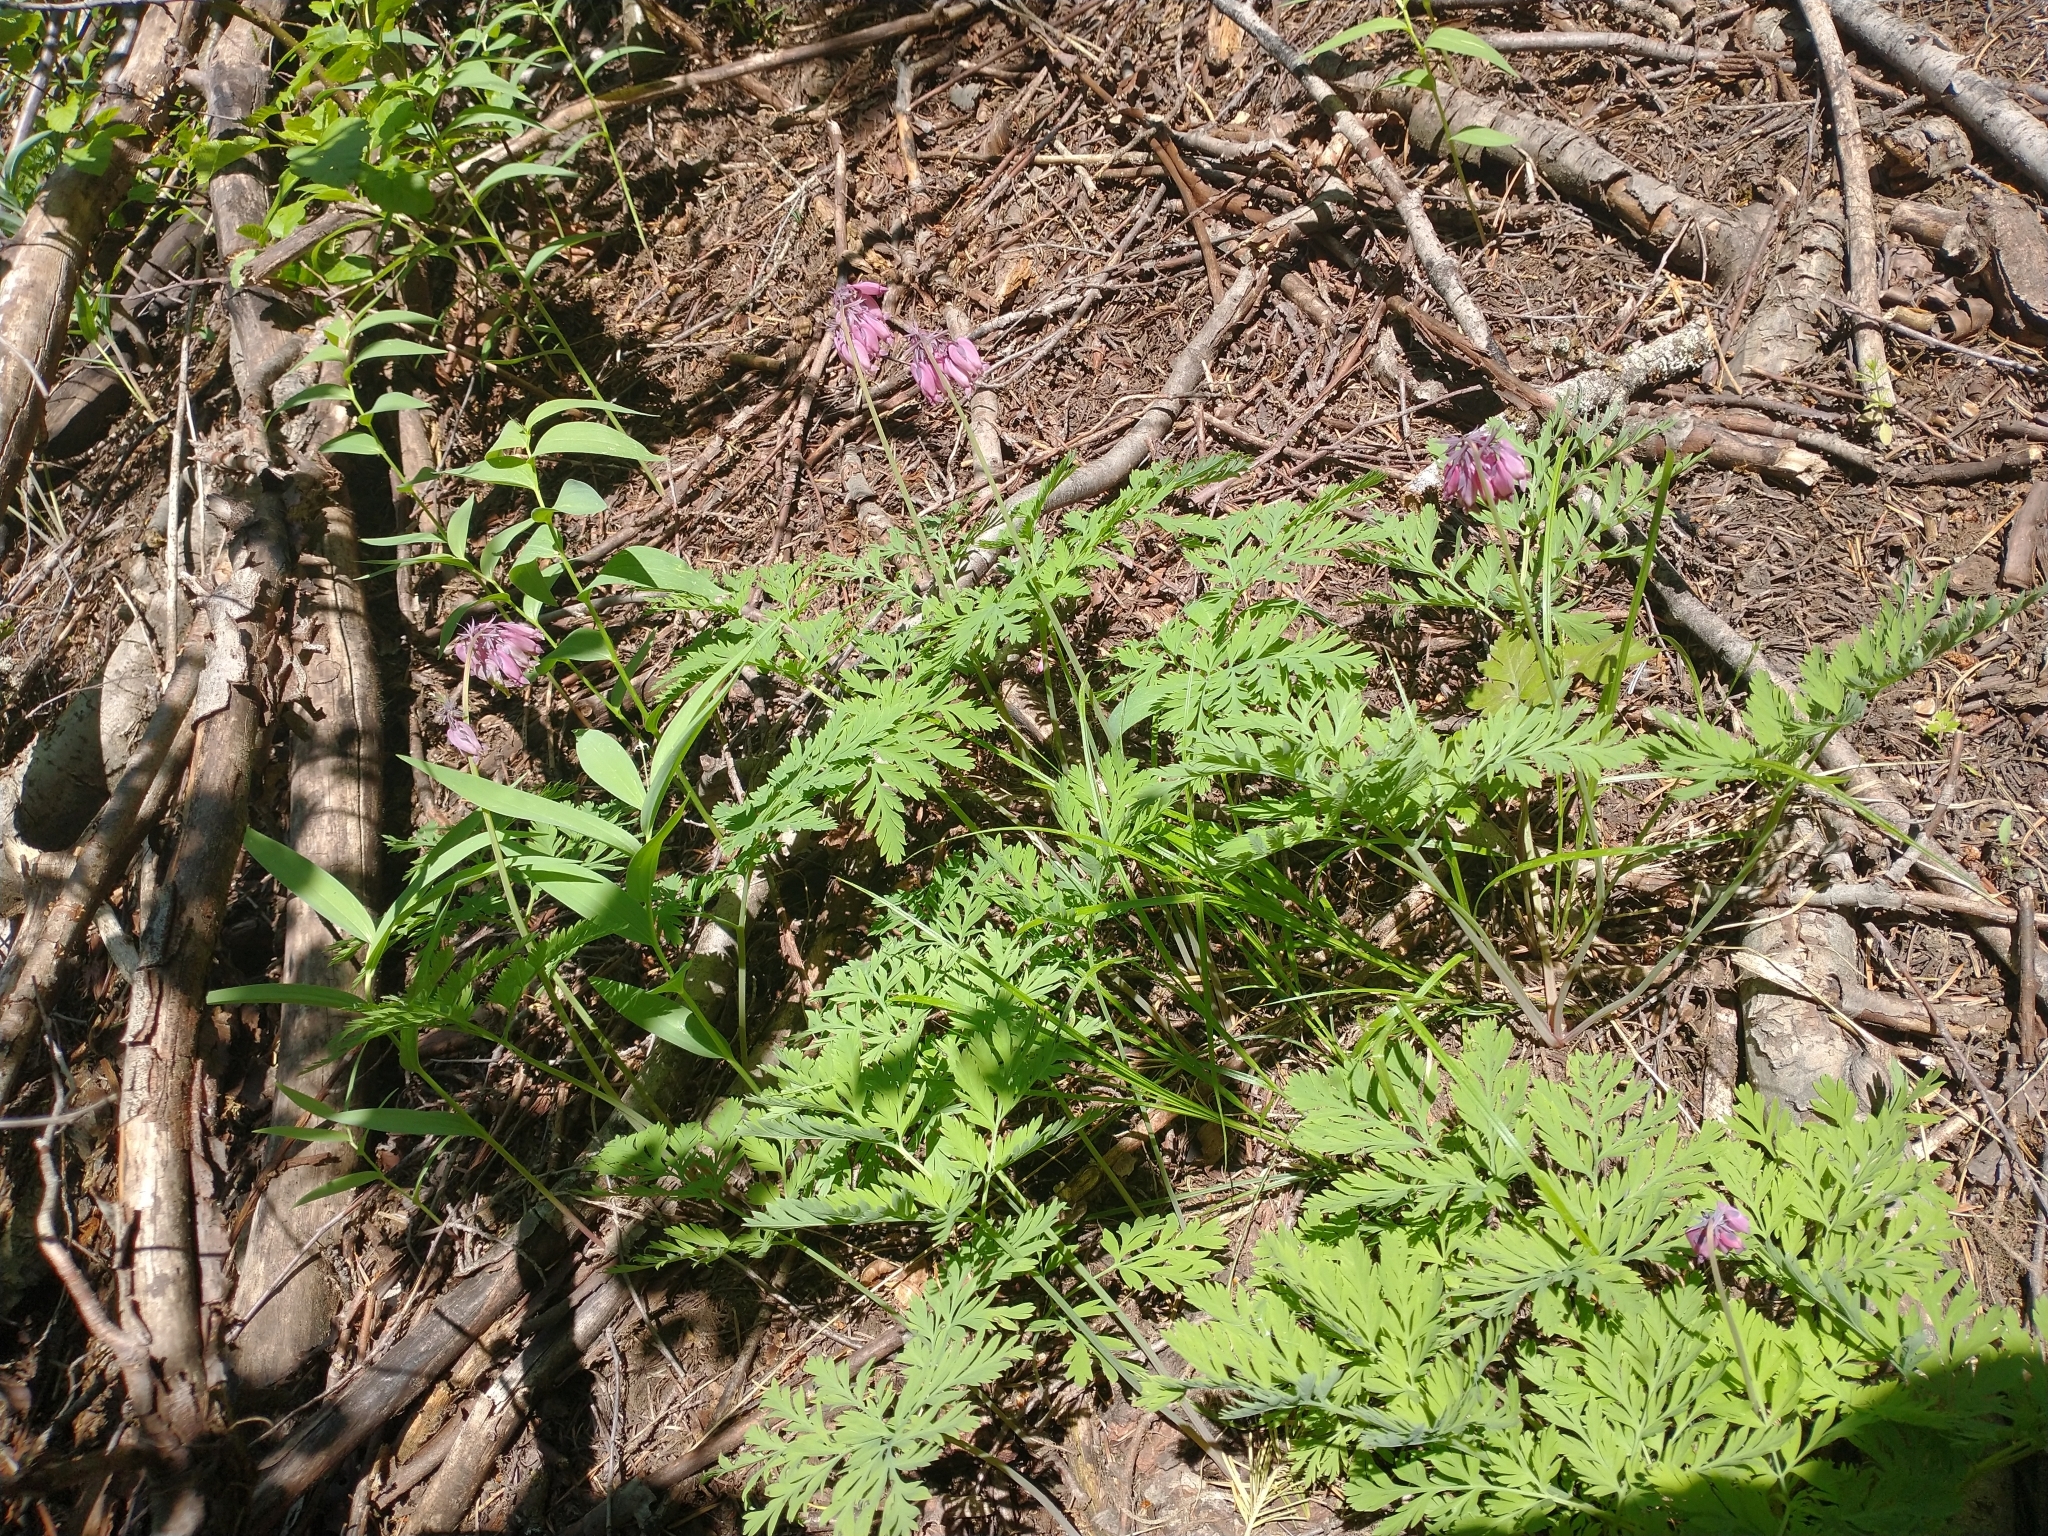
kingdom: Plantae
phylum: Tracheophyta
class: Magnoliopsida
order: Ranunculales
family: Papaveraceae
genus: Dicentra
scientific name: Dicentra formosa
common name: Bleeding-heart
